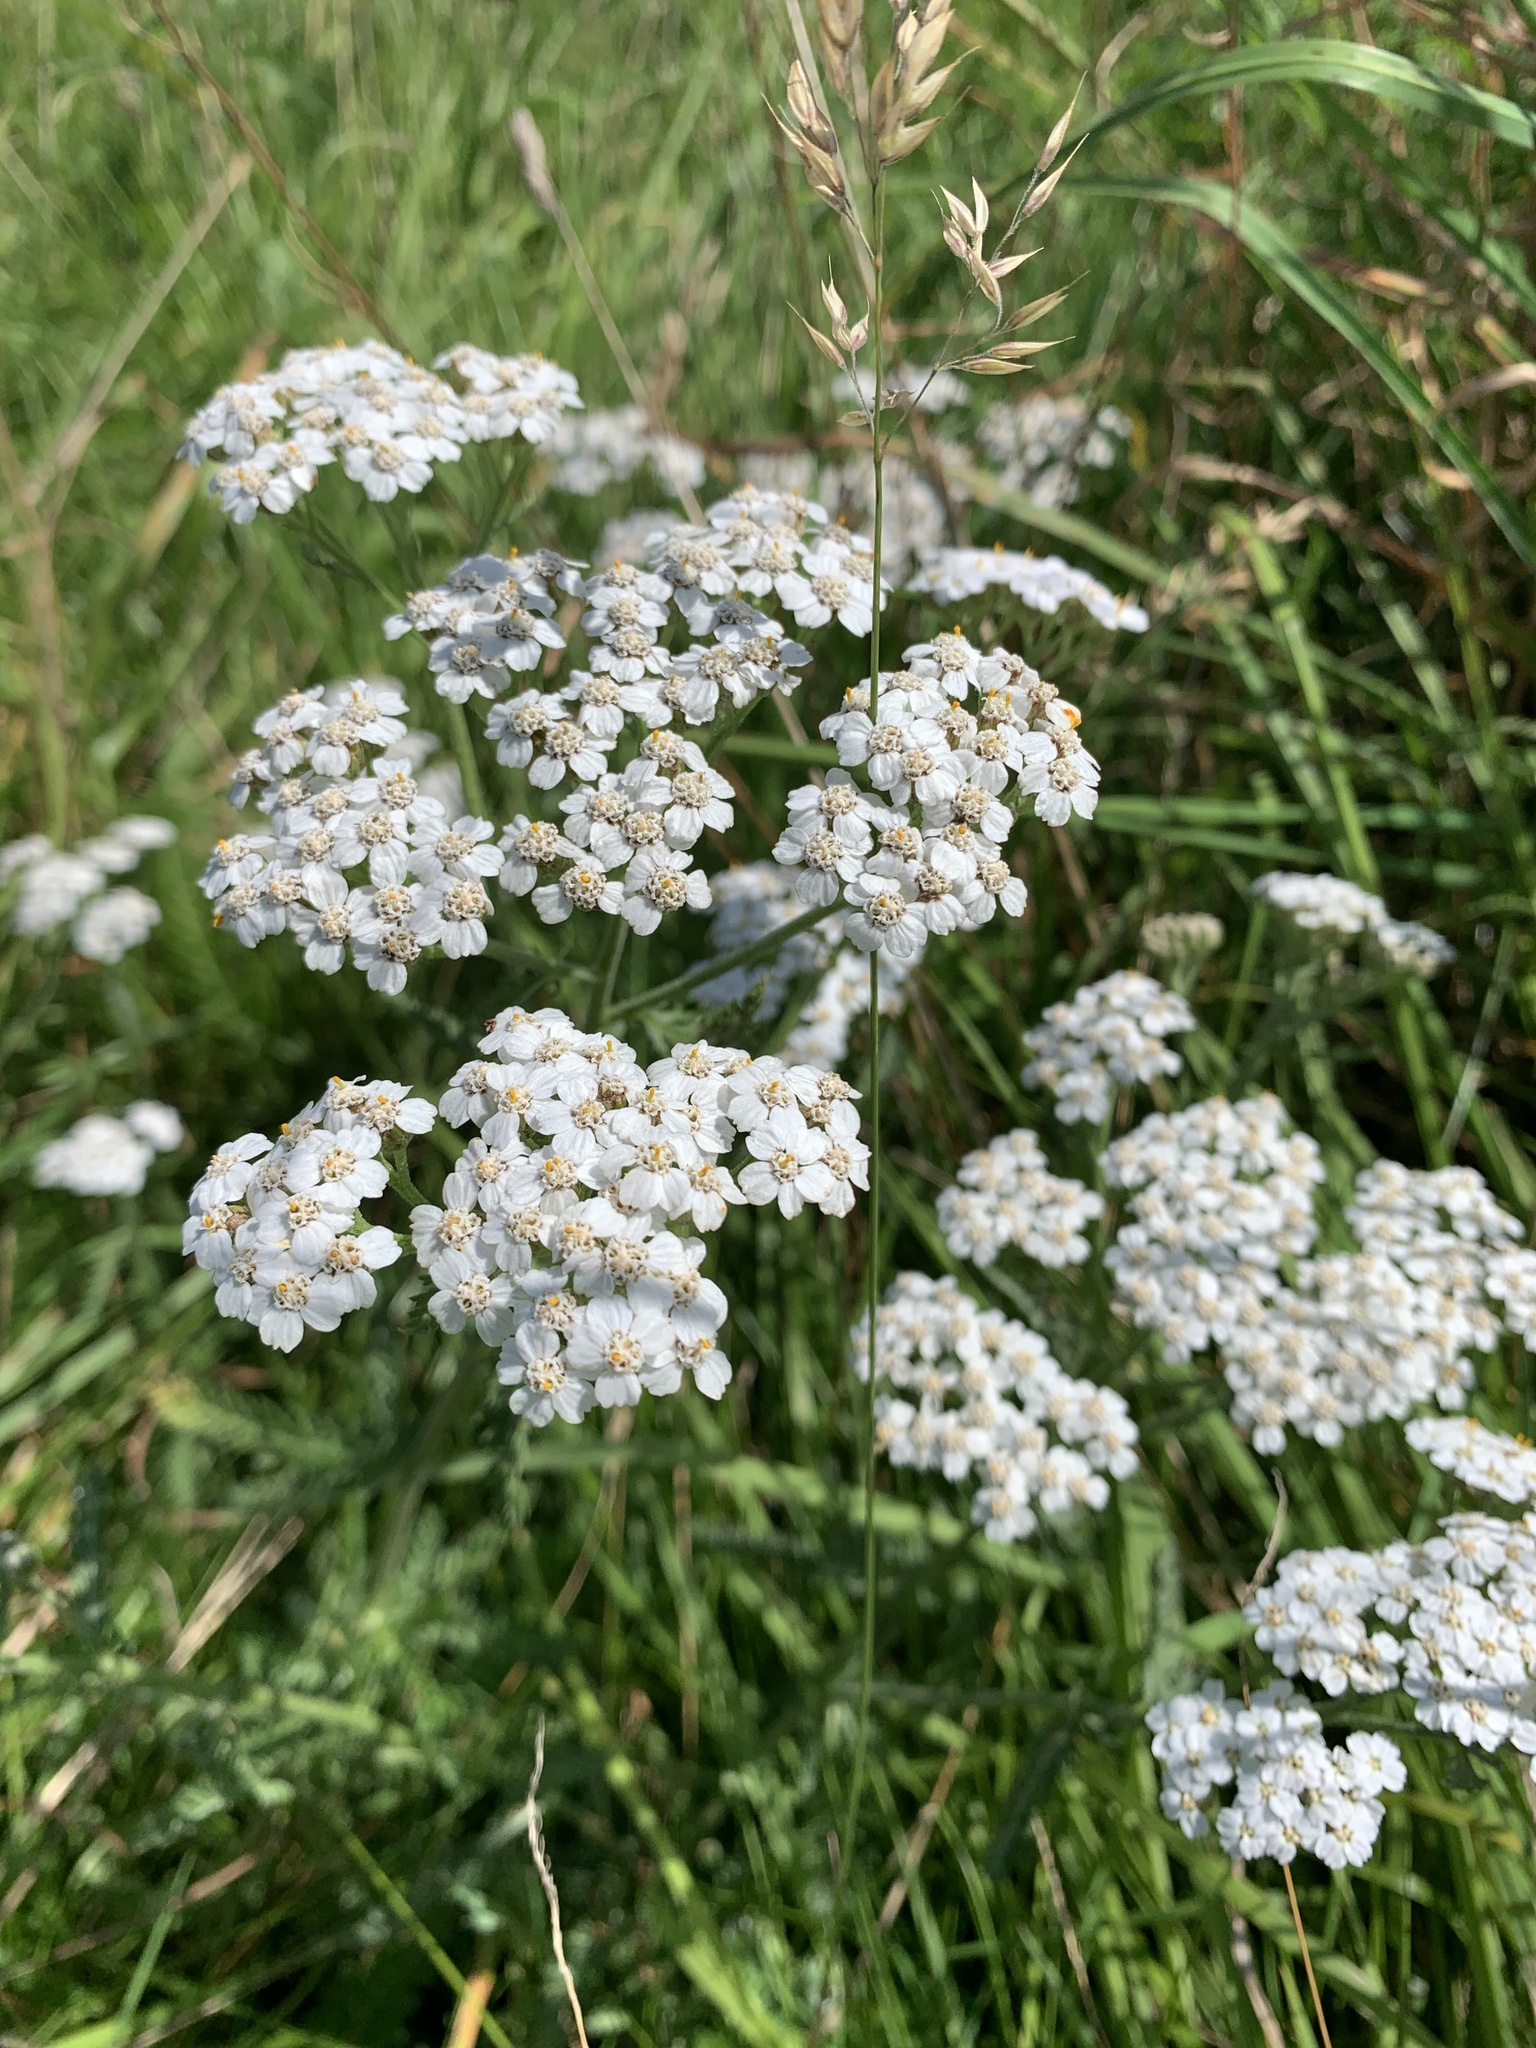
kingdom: Plantae
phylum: Tracheophyta
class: Magnoliopsida
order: Asterales
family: Asteraceae
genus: Achillea
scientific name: Achillea millefolium
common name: Yarrow
